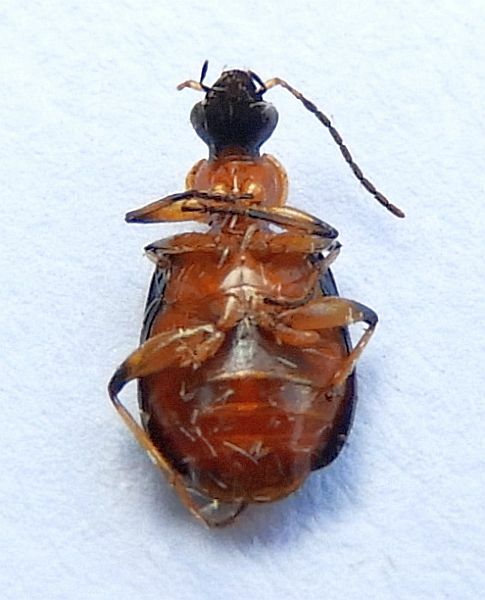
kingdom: Animalia
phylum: Arthropoda
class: Insecta
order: Coleoptera
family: Carabidae
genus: Lebia
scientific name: Lebia viridipennis
